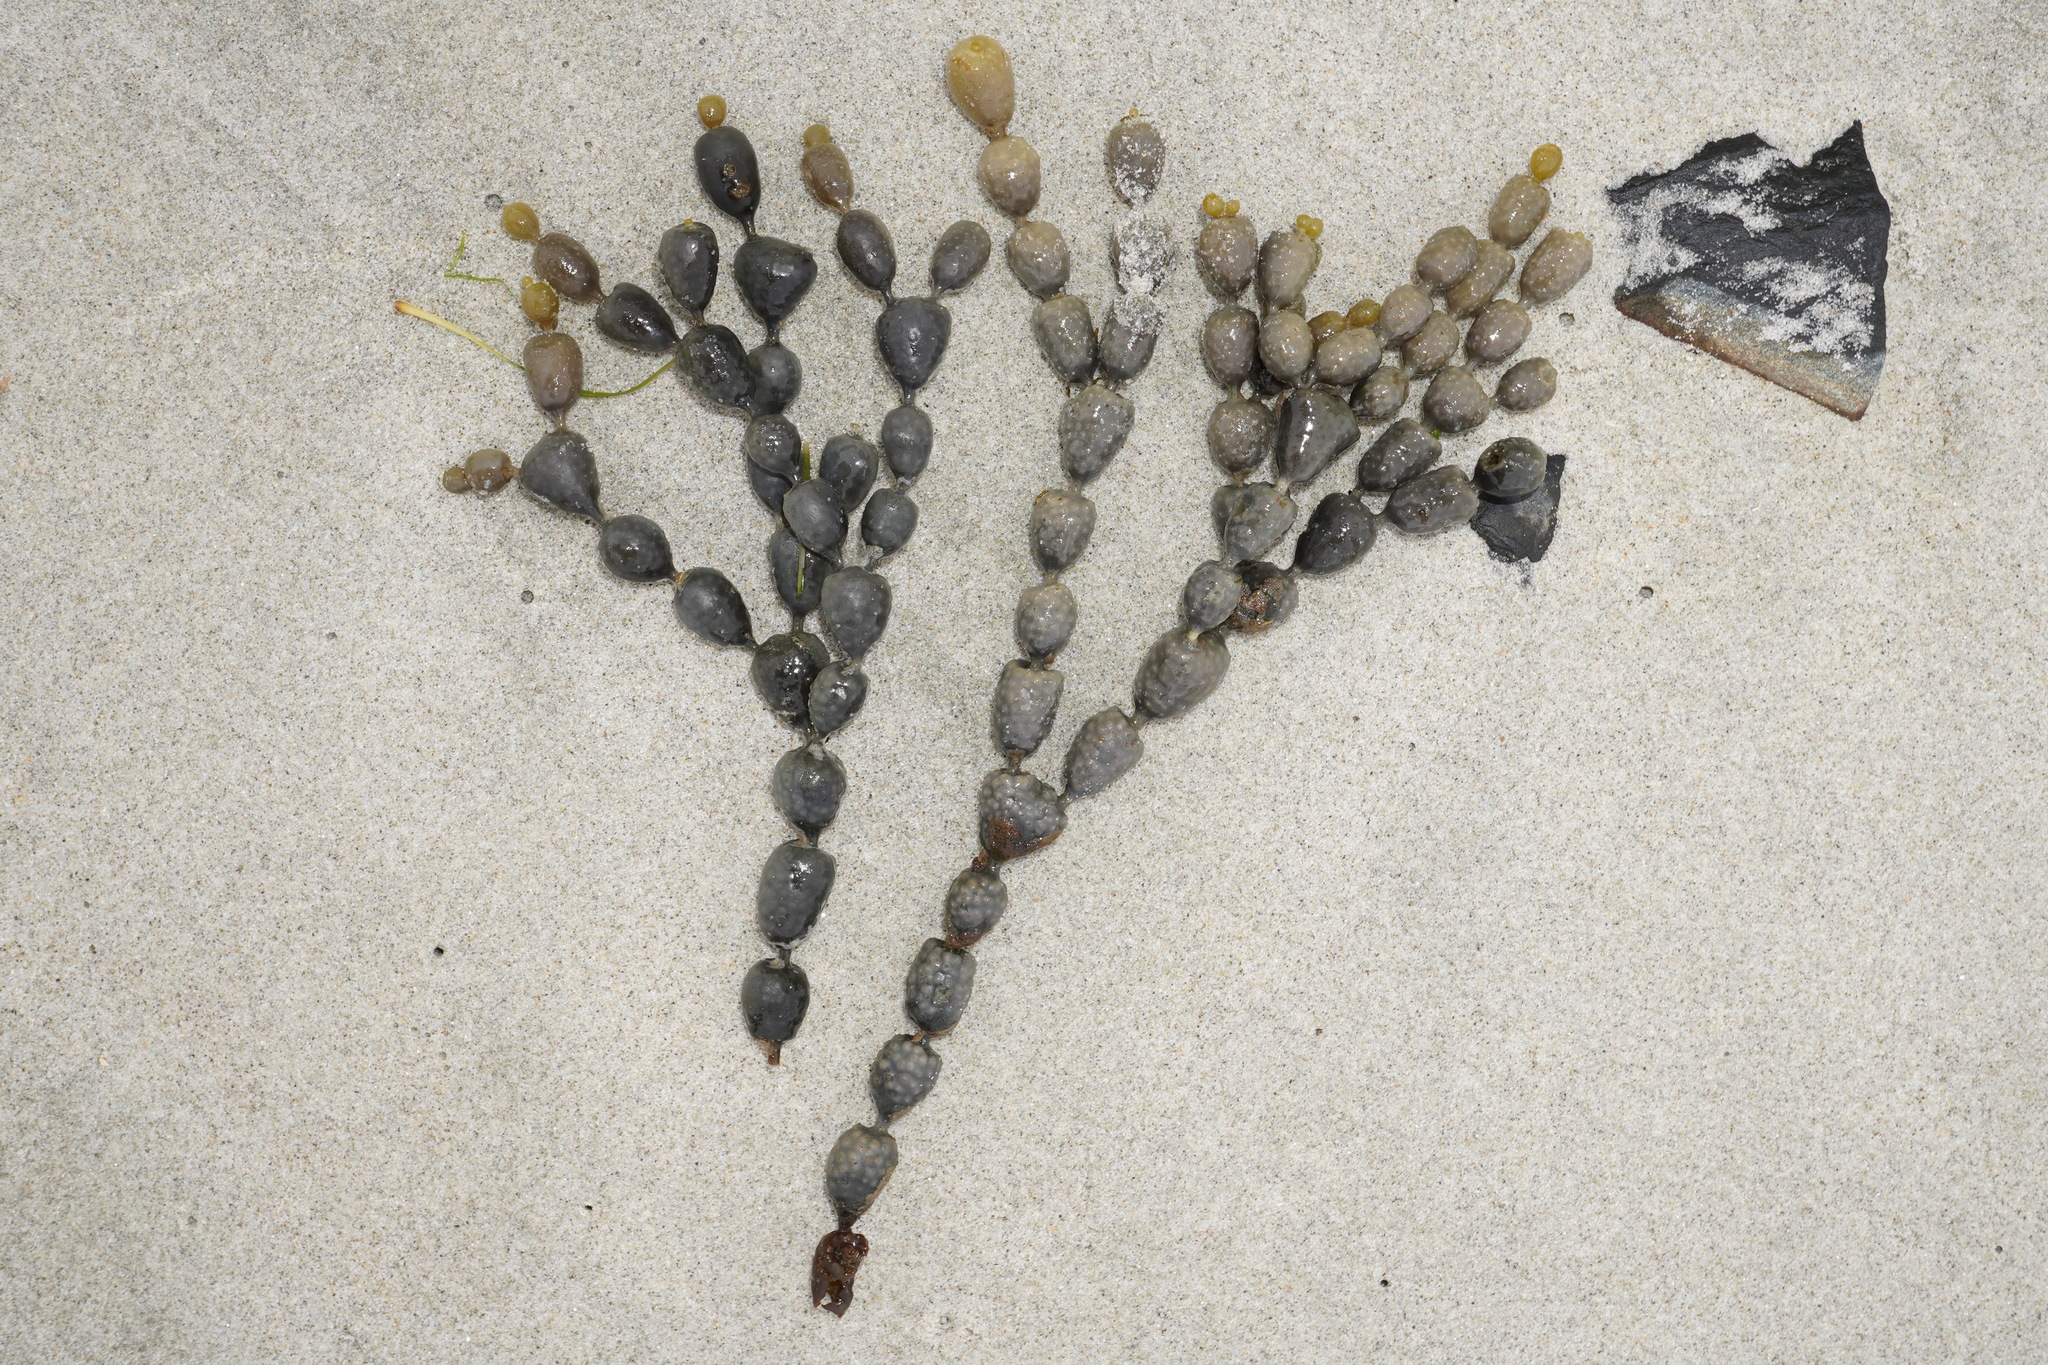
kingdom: Chromista
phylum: Ochrophyta
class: Phaeophyceae
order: Fucales
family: Hormosiraceae
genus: Hormosira
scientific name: Hormosira banksii
